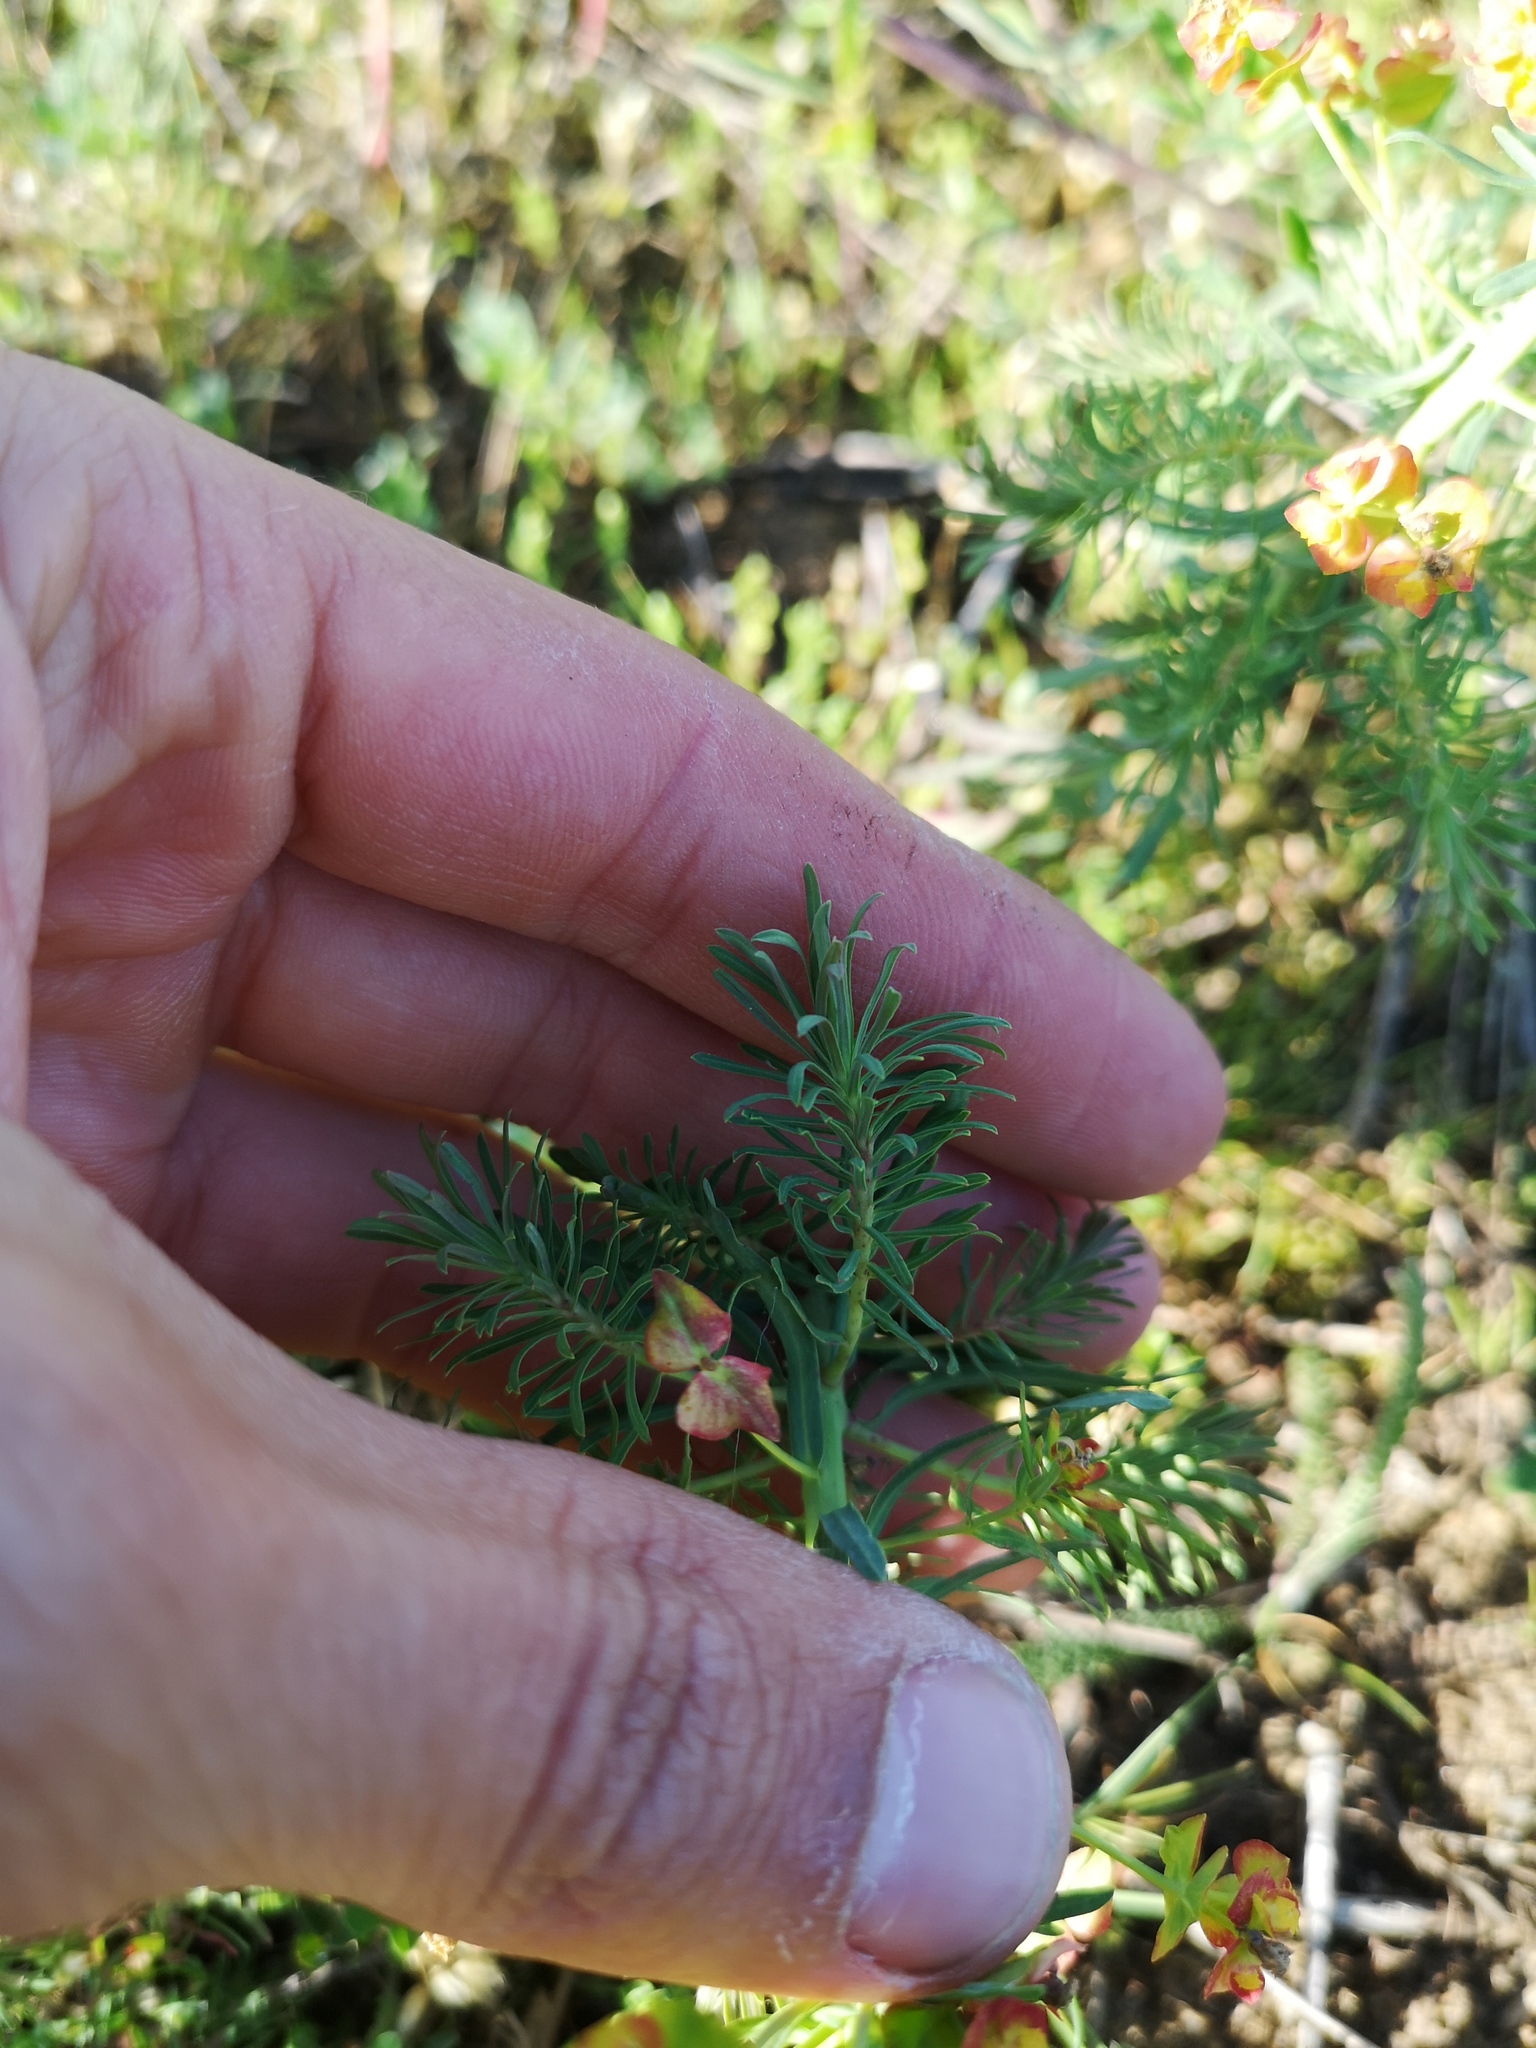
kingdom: Plantae
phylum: Tracheophyta
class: Magnoliopsida
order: Malpighiales
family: Euphorbiaceae
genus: Euphorbia
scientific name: Euphorbia cyparissias
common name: Cypress spurge
